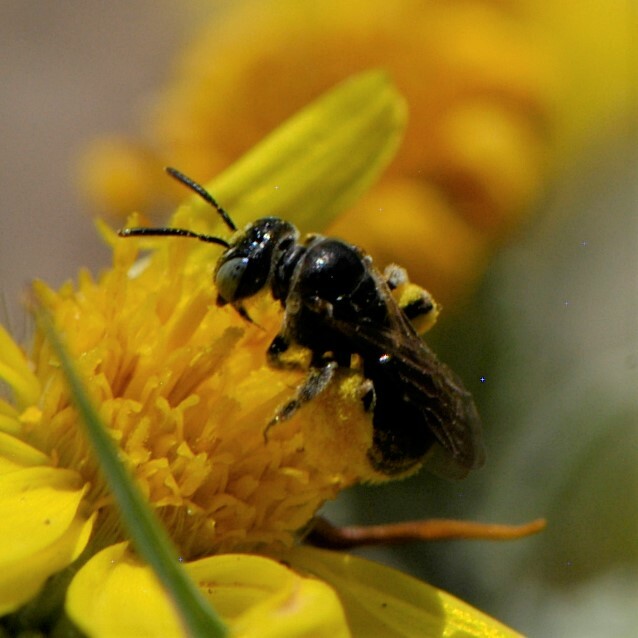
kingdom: Animalia
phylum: Arthropoda
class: Insecta
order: Hymenoptera
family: Andrenidae
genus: Pterosarus
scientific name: Pterosarus
